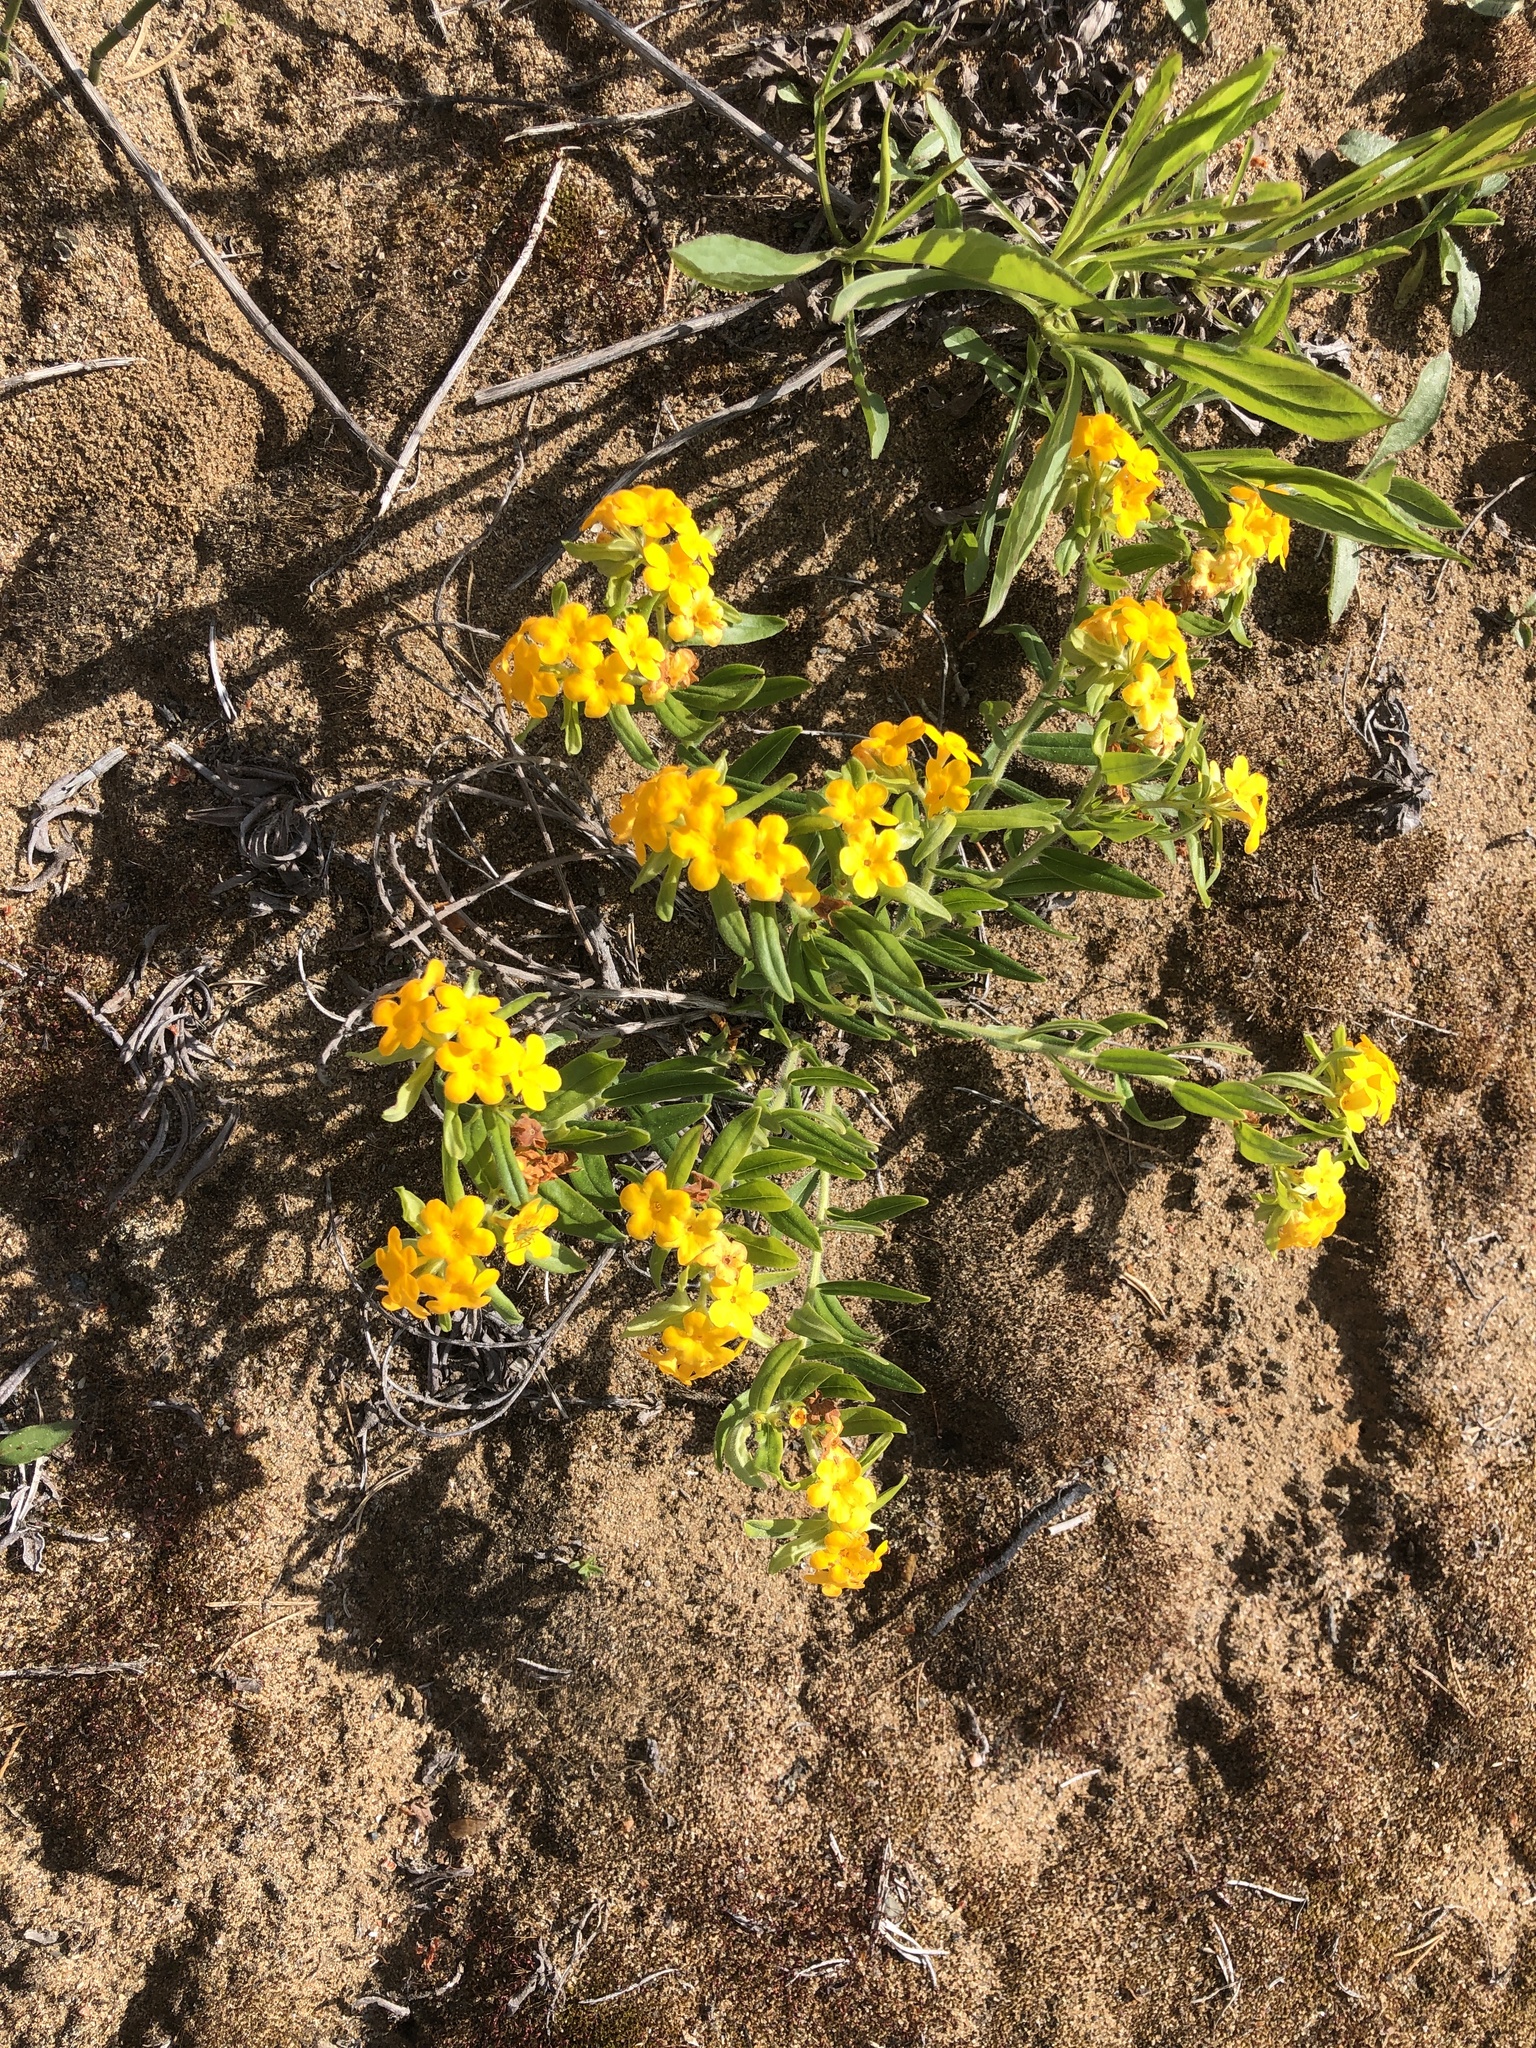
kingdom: Plantae
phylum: Tracheophyta
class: Magnoliopsida
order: Boraginales
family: Boraginaceae
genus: Lithospermum
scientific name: Lithospermum canescens
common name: Hoary puccoon
